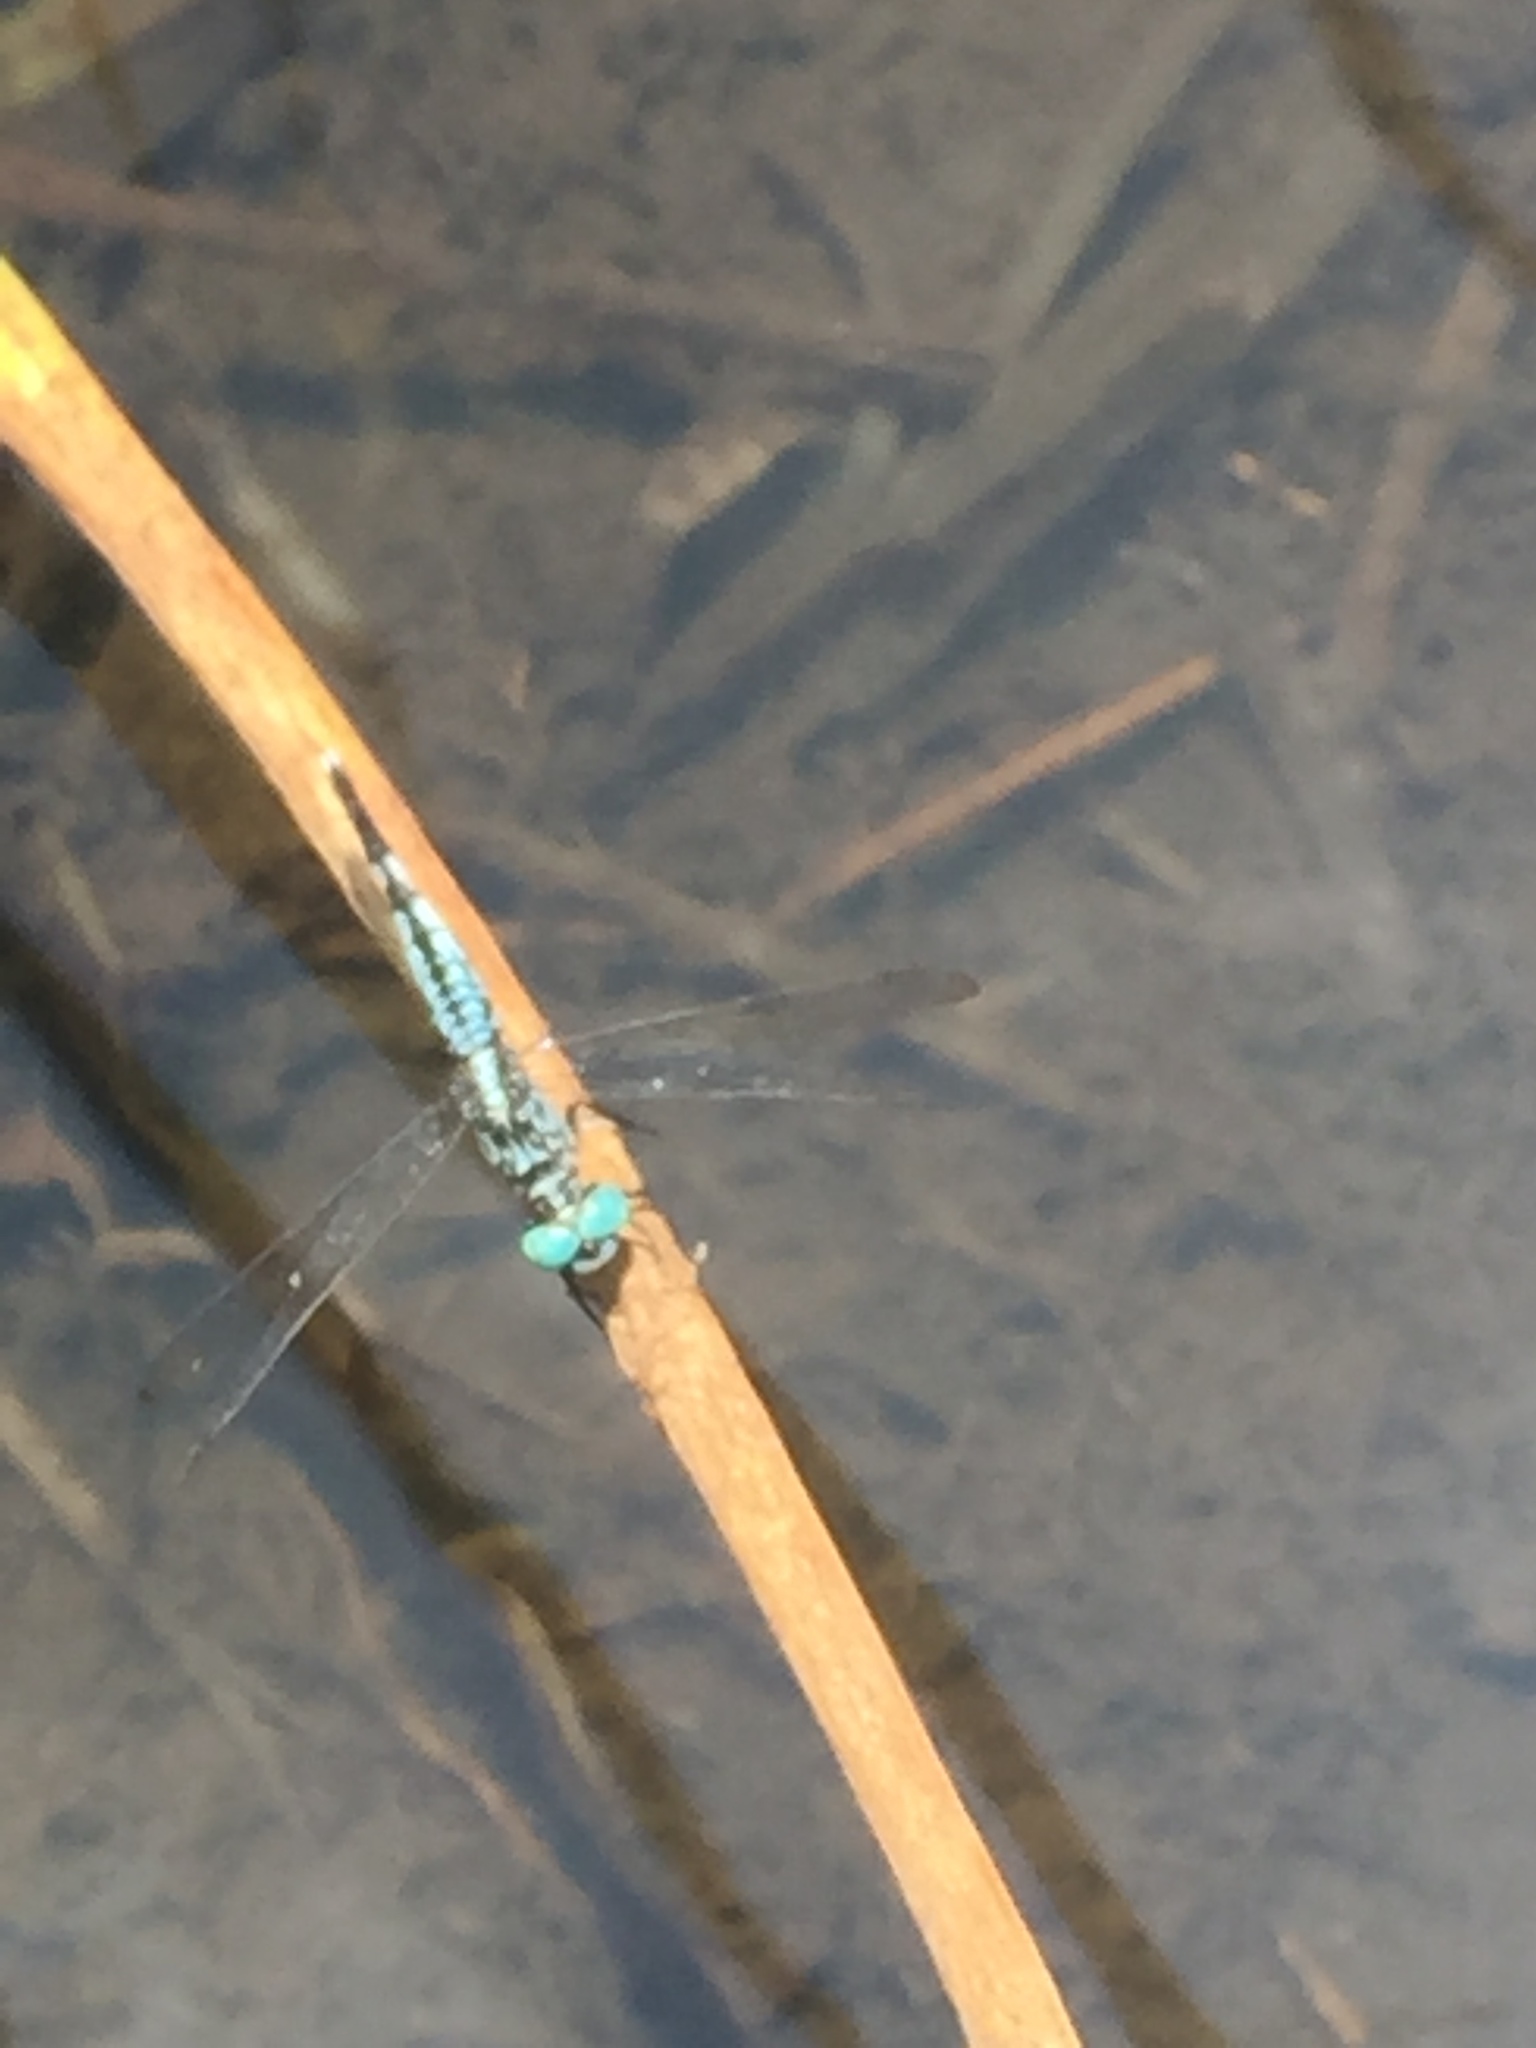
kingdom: Animalia
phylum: Arthropoda
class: Insecta
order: Odonata
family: Libellulidae
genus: Acisoma
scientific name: Acisoma panorpoides
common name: Asian pintail
